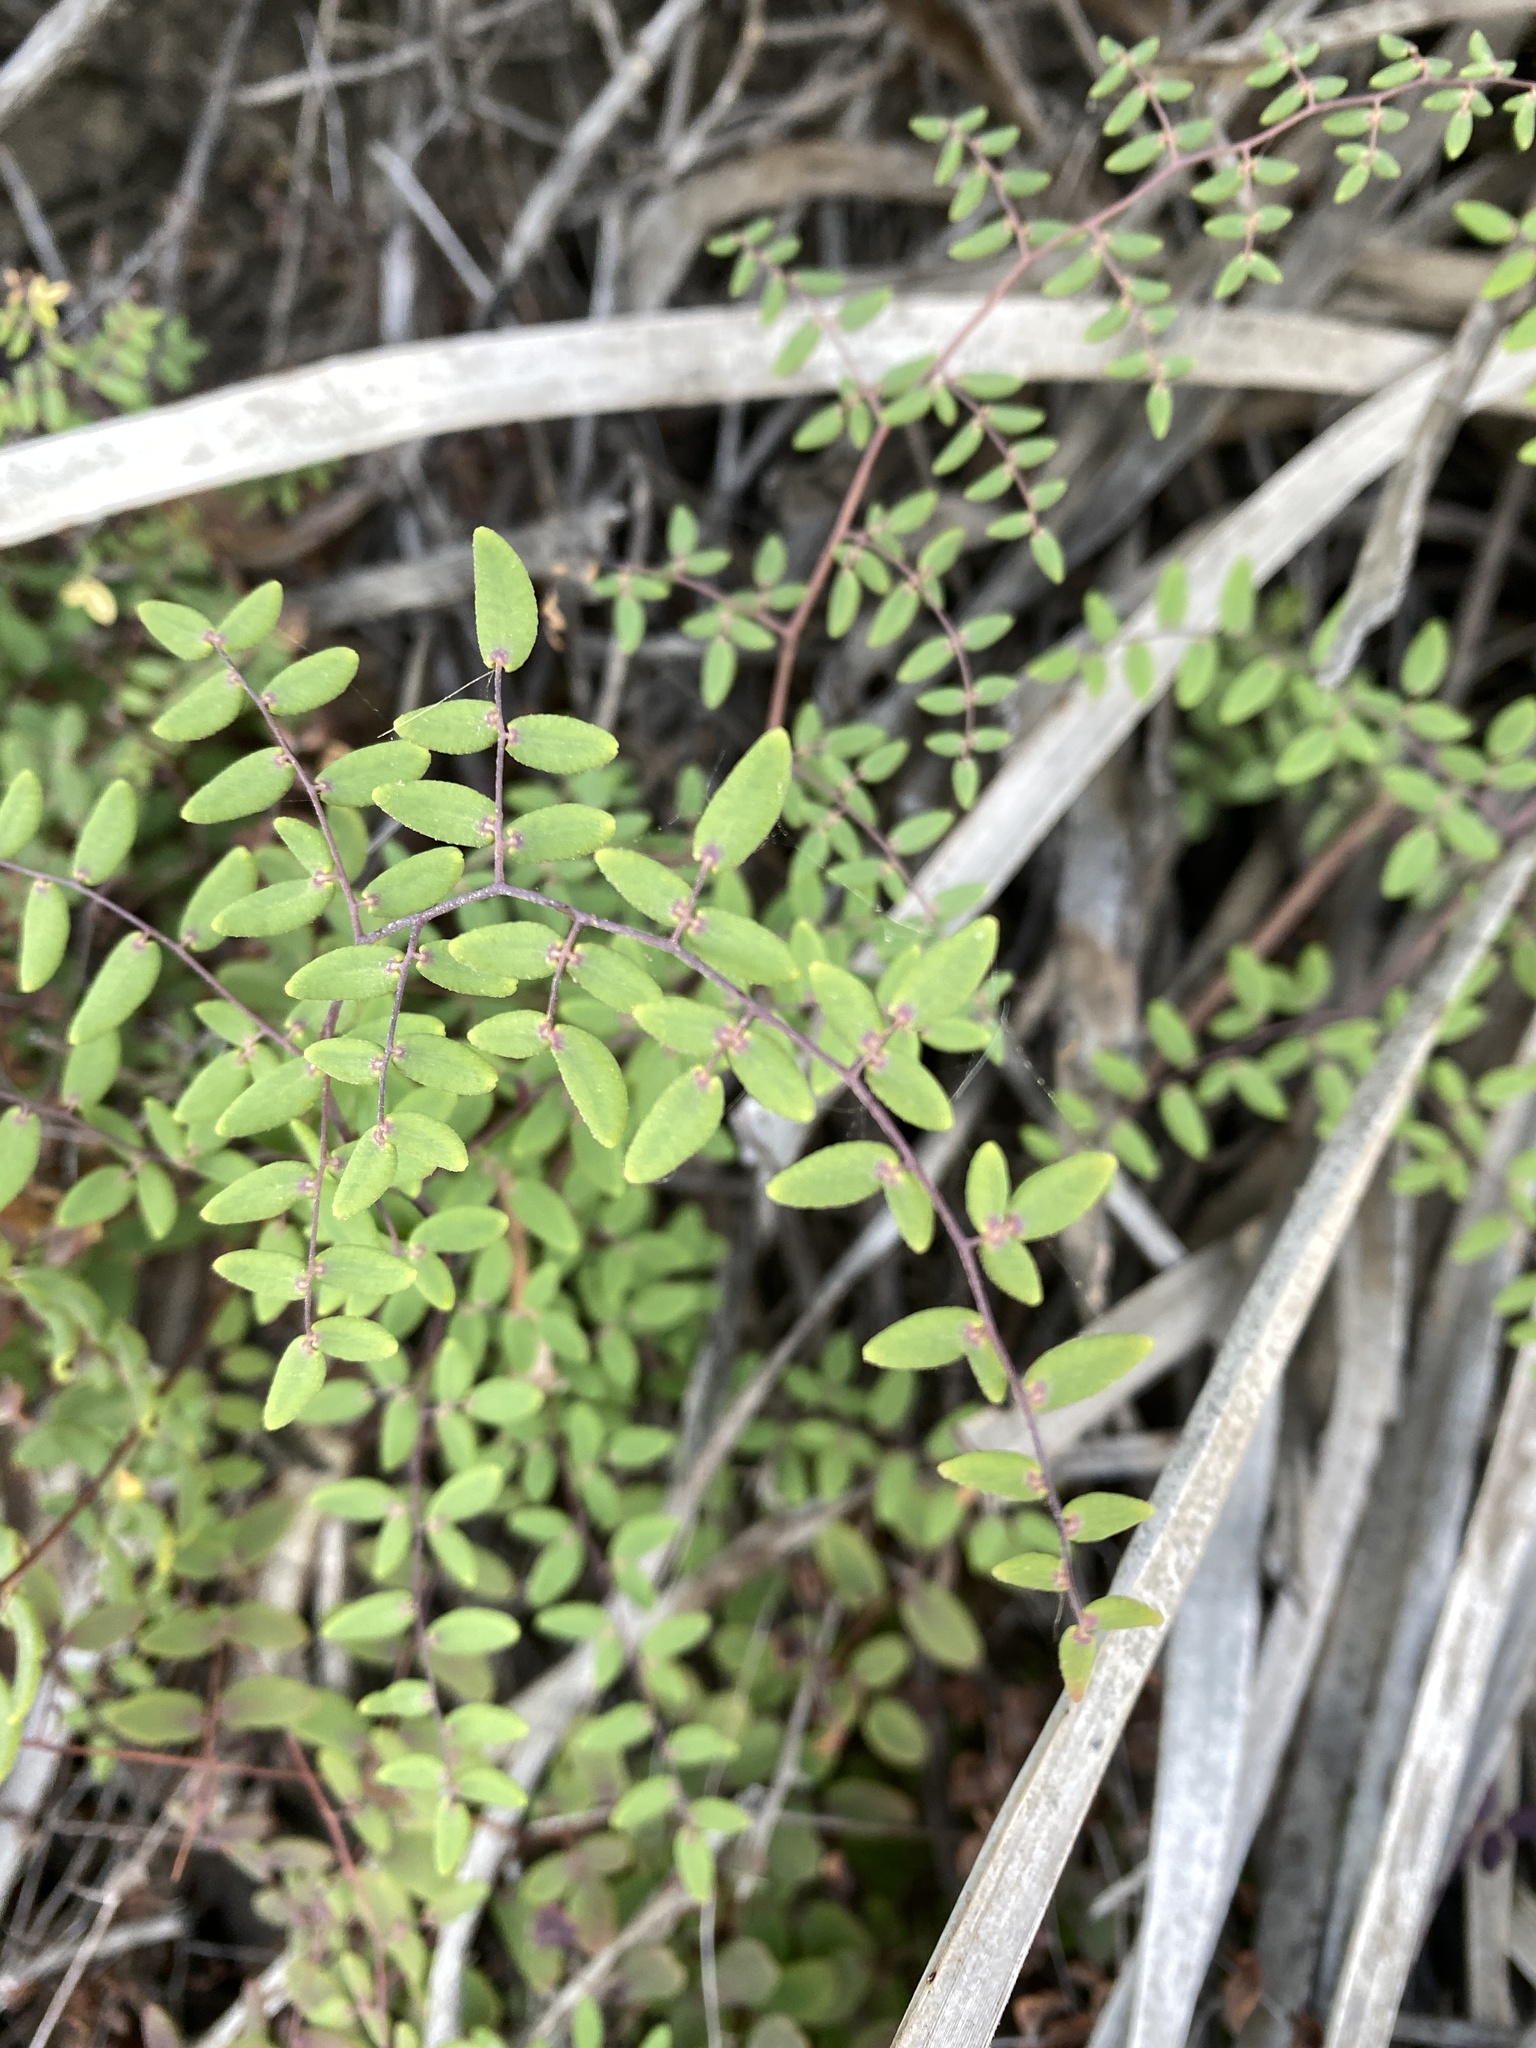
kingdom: Plantae
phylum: Tracheophyta
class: Polypodiopsida
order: Polypodiales
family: Pteridaceae
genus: Pellaea
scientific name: Pellaea andromedifolia
